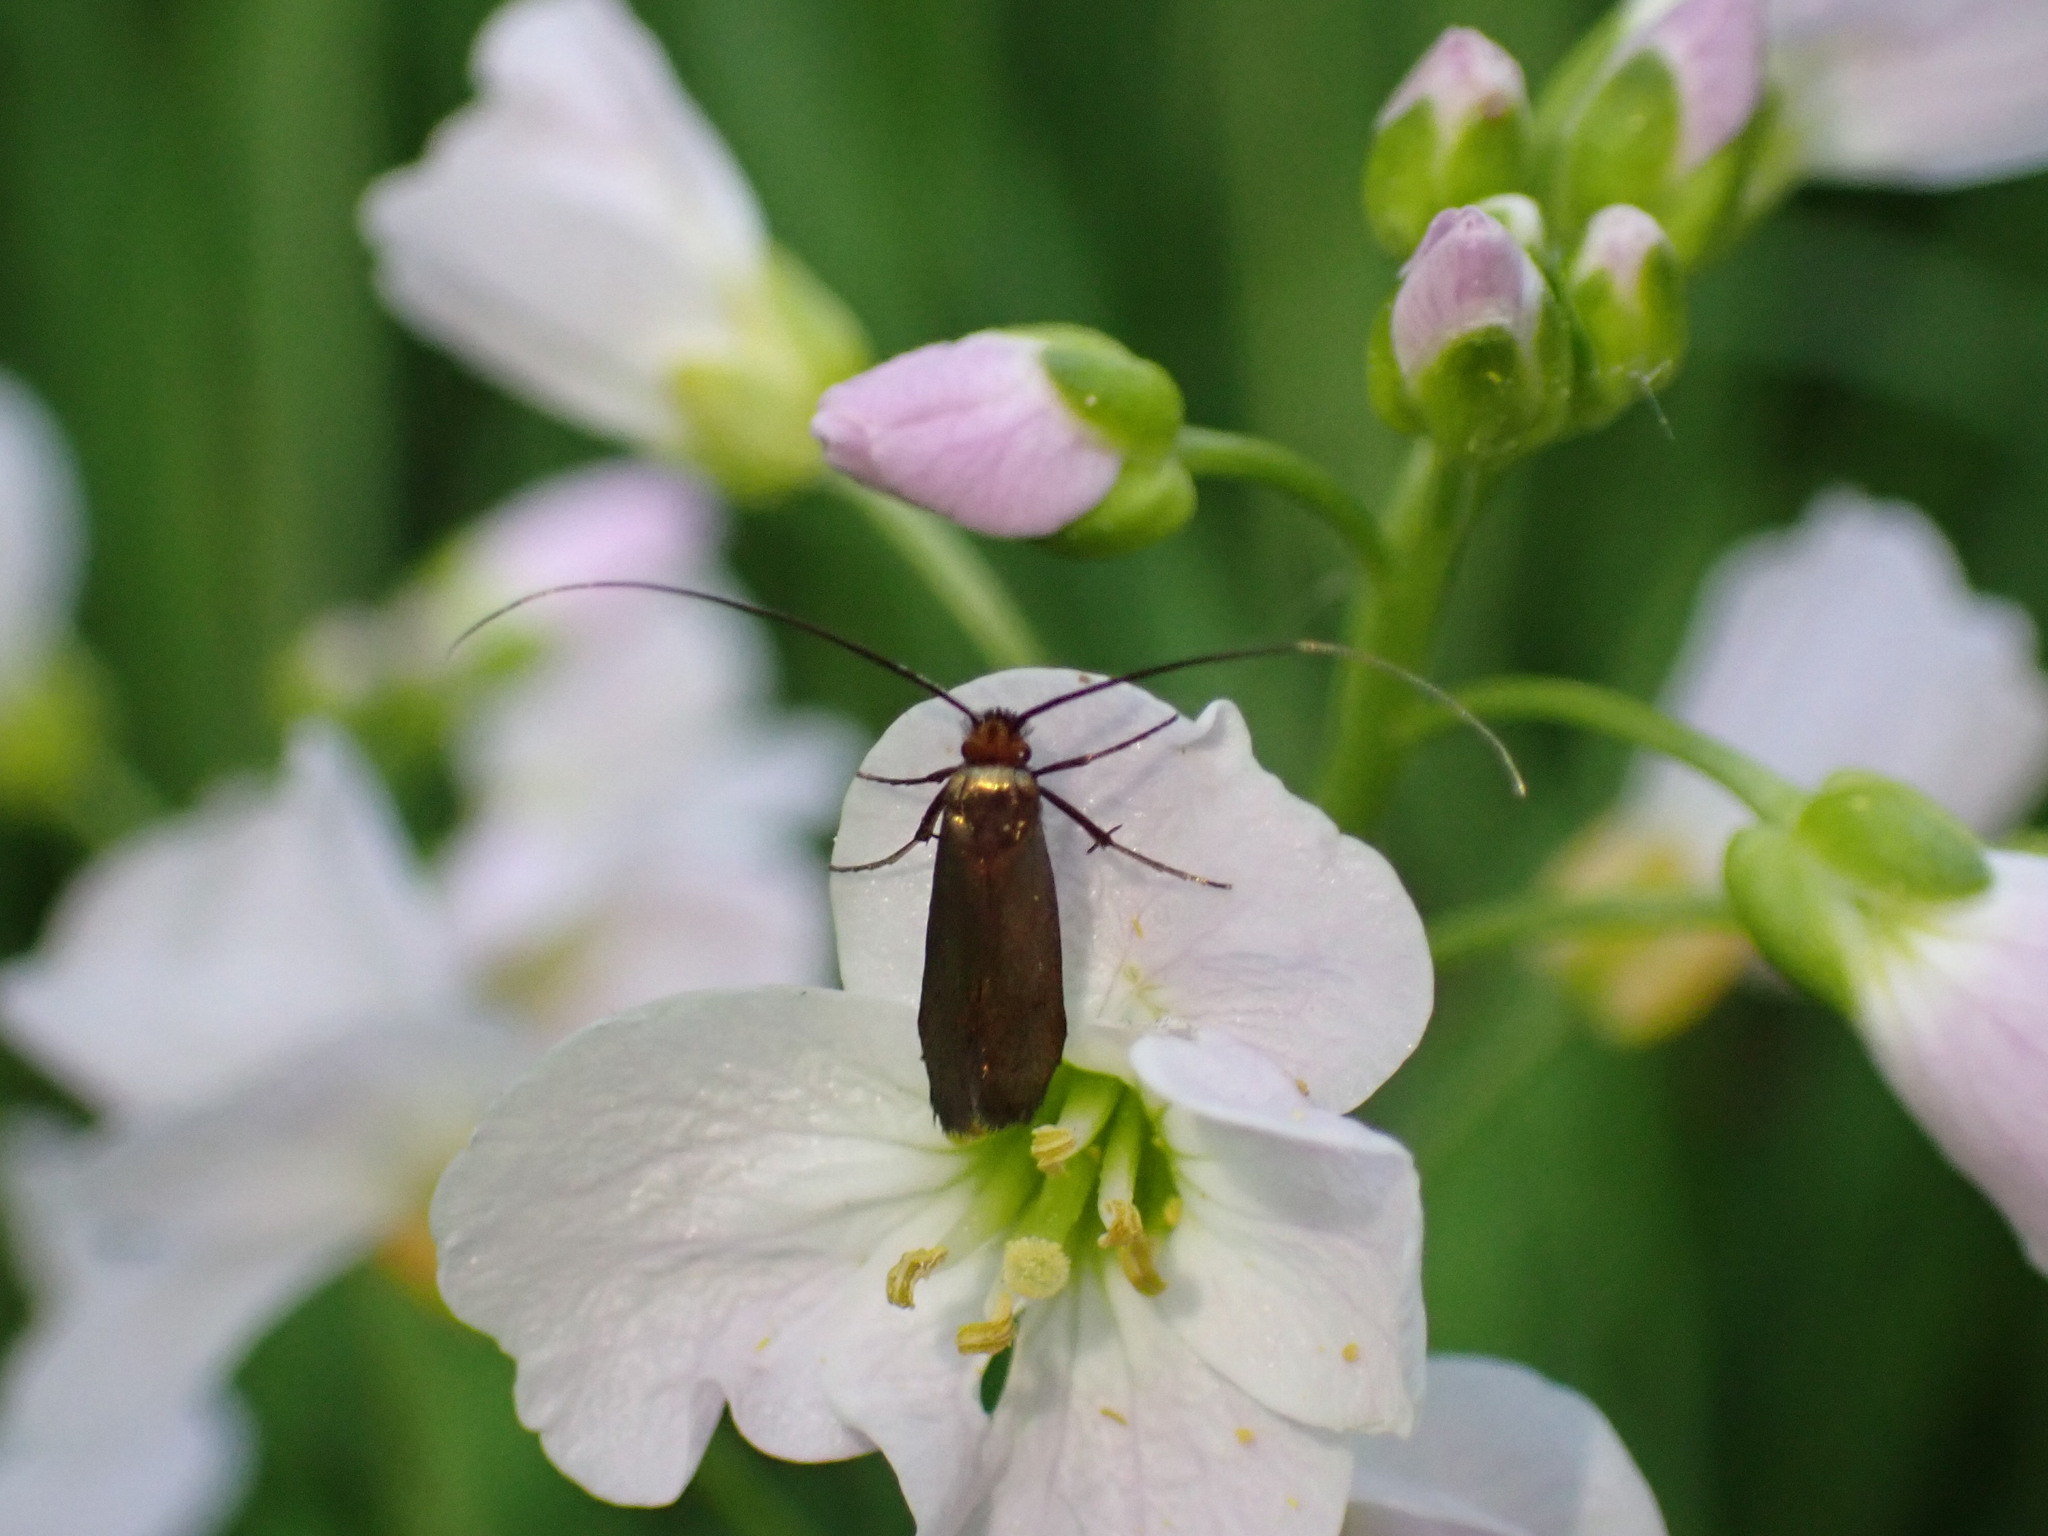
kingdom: Animalia
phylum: Arthropoda
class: Insecta
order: Lepidoptera
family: Adelidae
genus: Cauchas
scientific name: Cauchas rufimitrella
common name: Meadow long-horn
